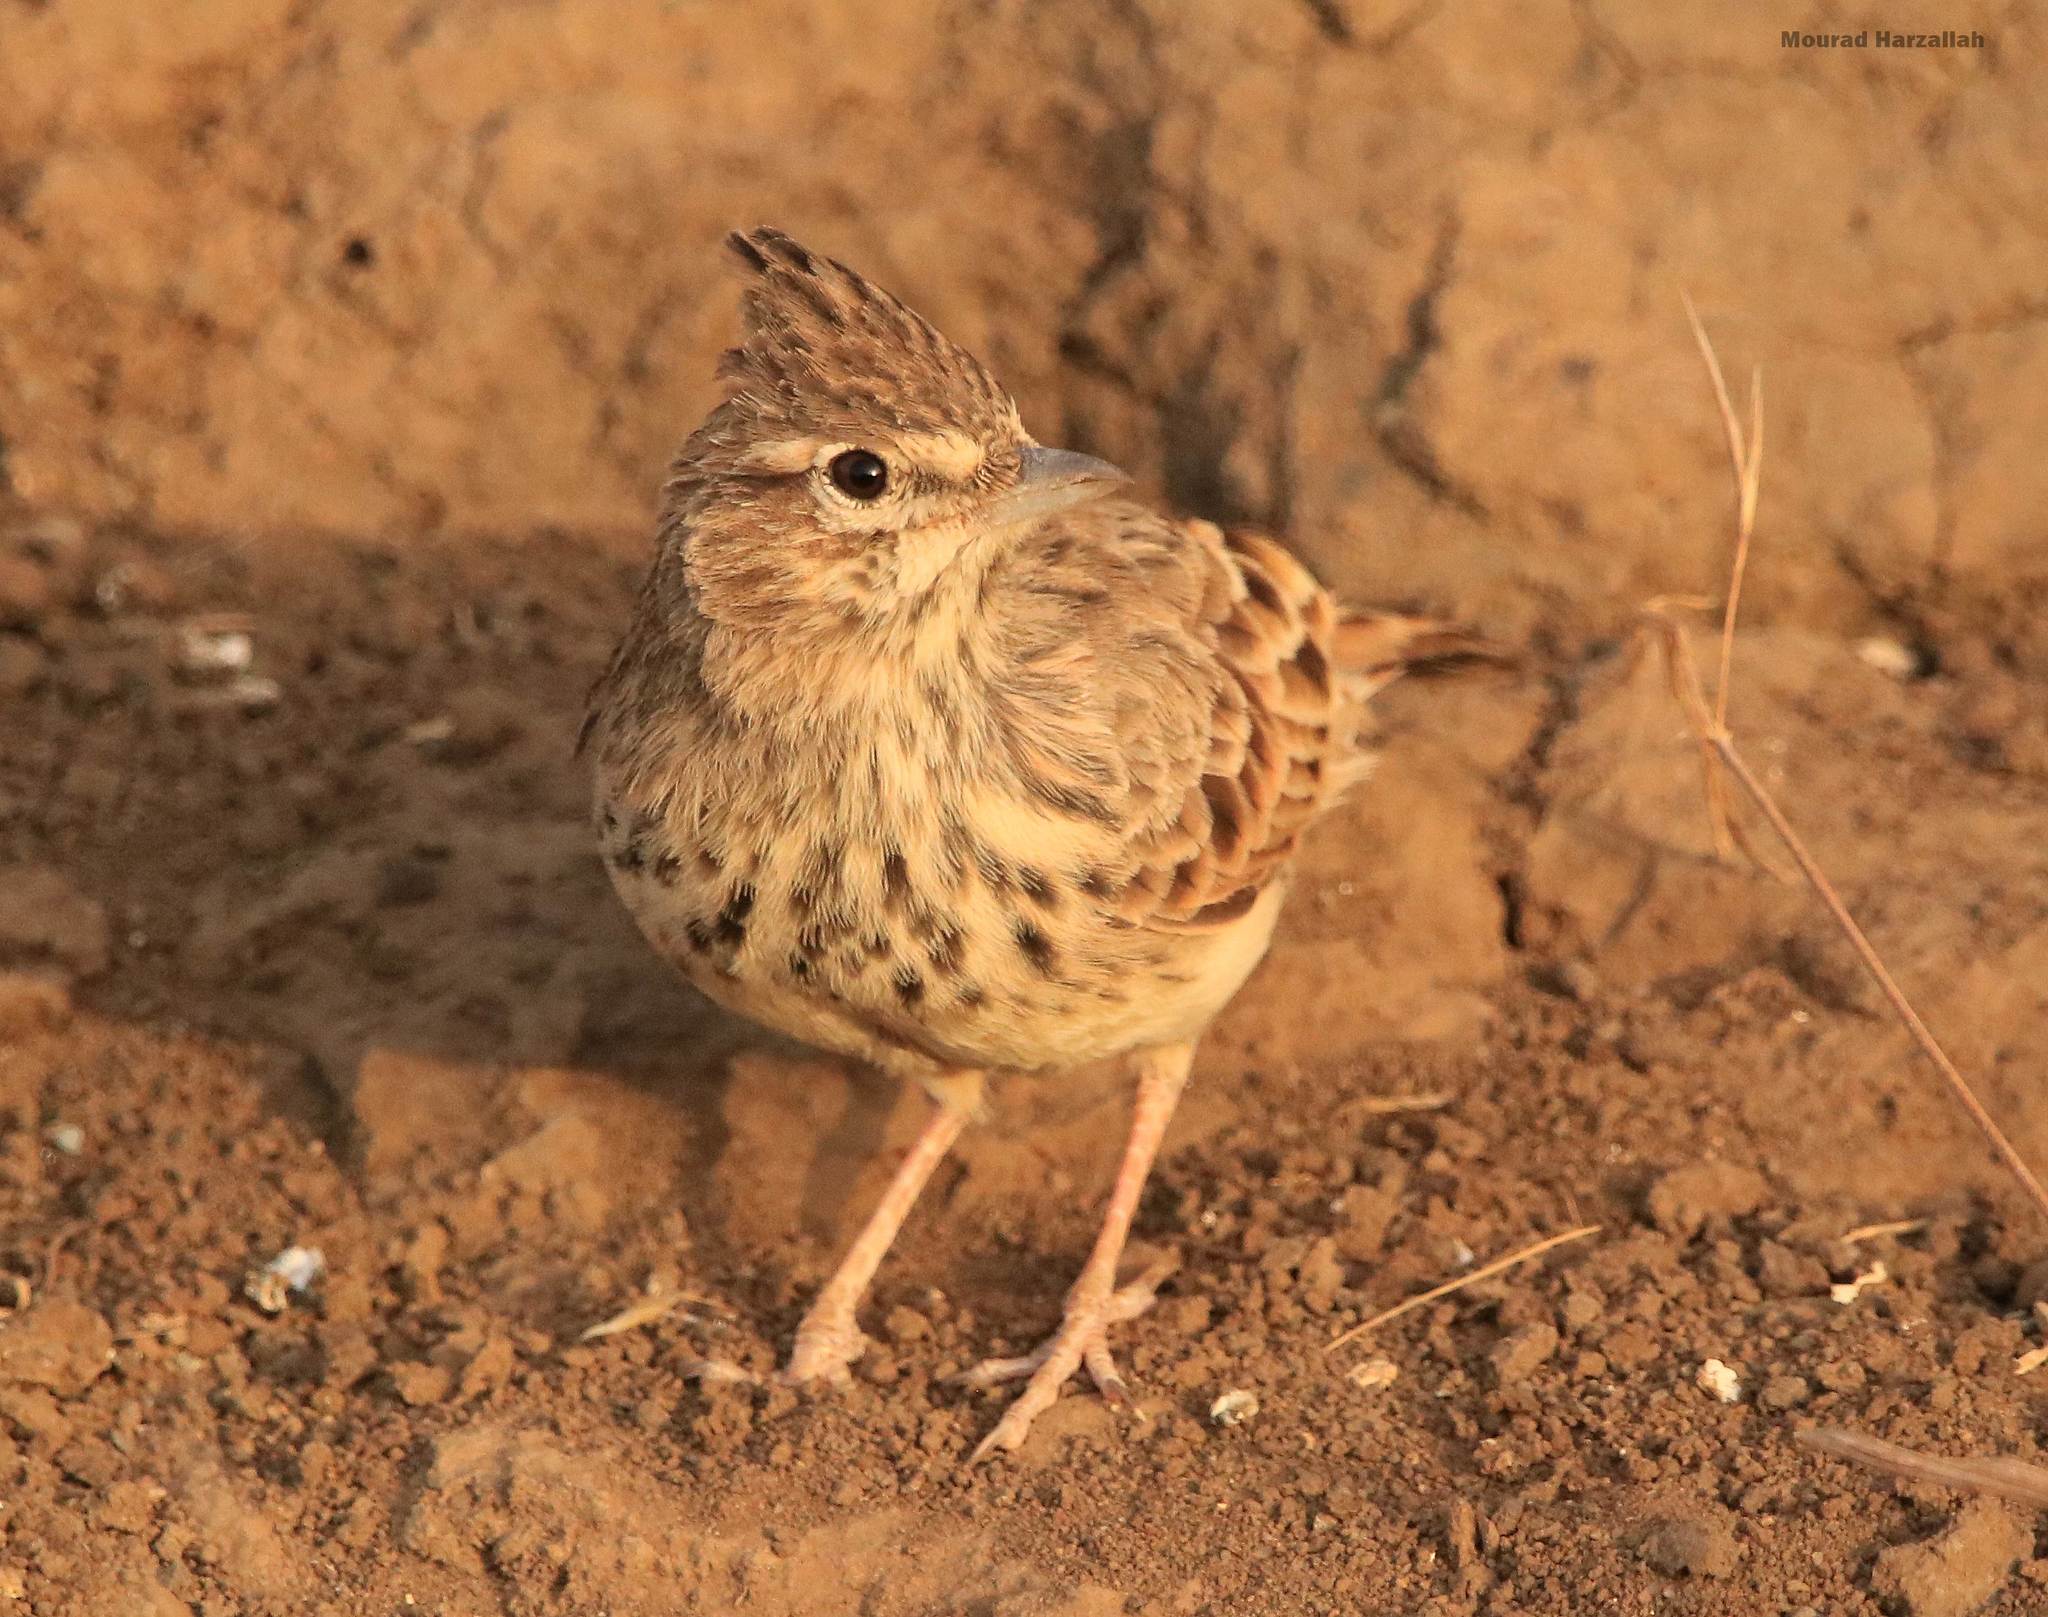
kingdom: Animalia
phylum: Chordata
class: Aves
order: Passeriformes
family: Alaudidae
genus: Galerida
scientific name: Galerida theklae
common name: Thekla lark
